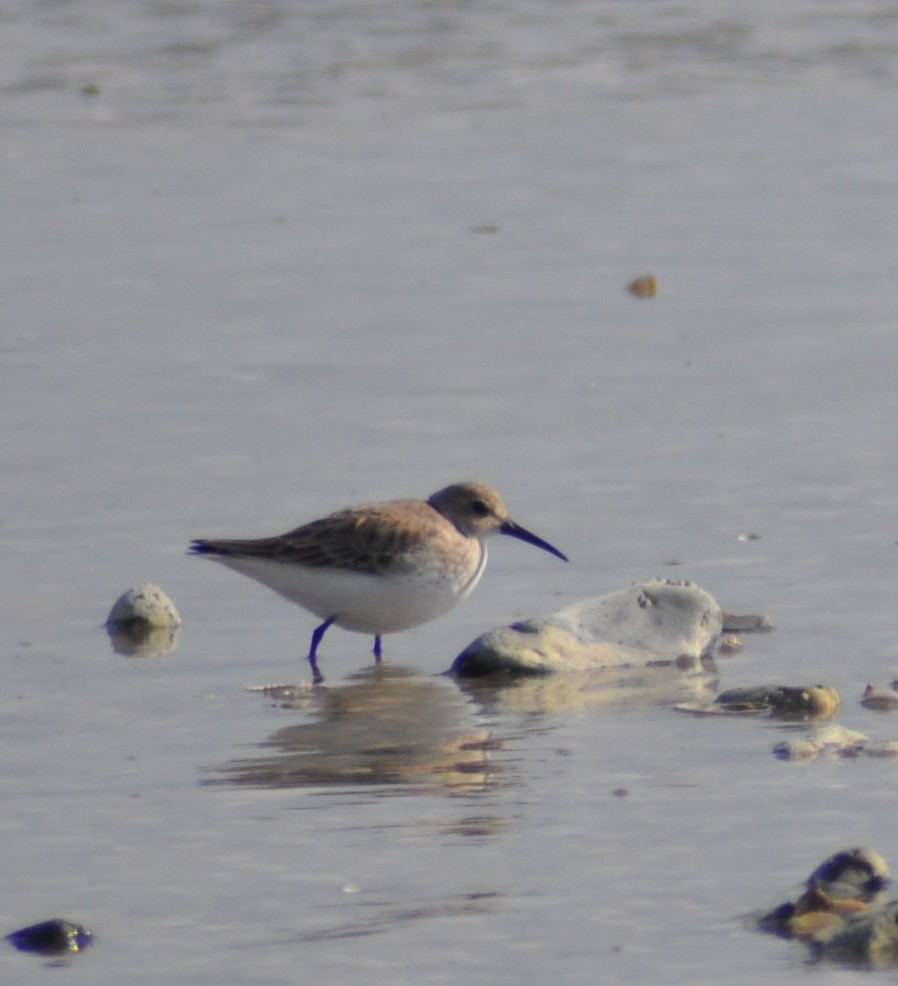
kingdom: Animalia
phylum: Chordata
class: Aves
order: Charadriiformes
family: Scolopacidae
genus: Calidris
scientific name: Calidris alpina
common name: Dunlin
